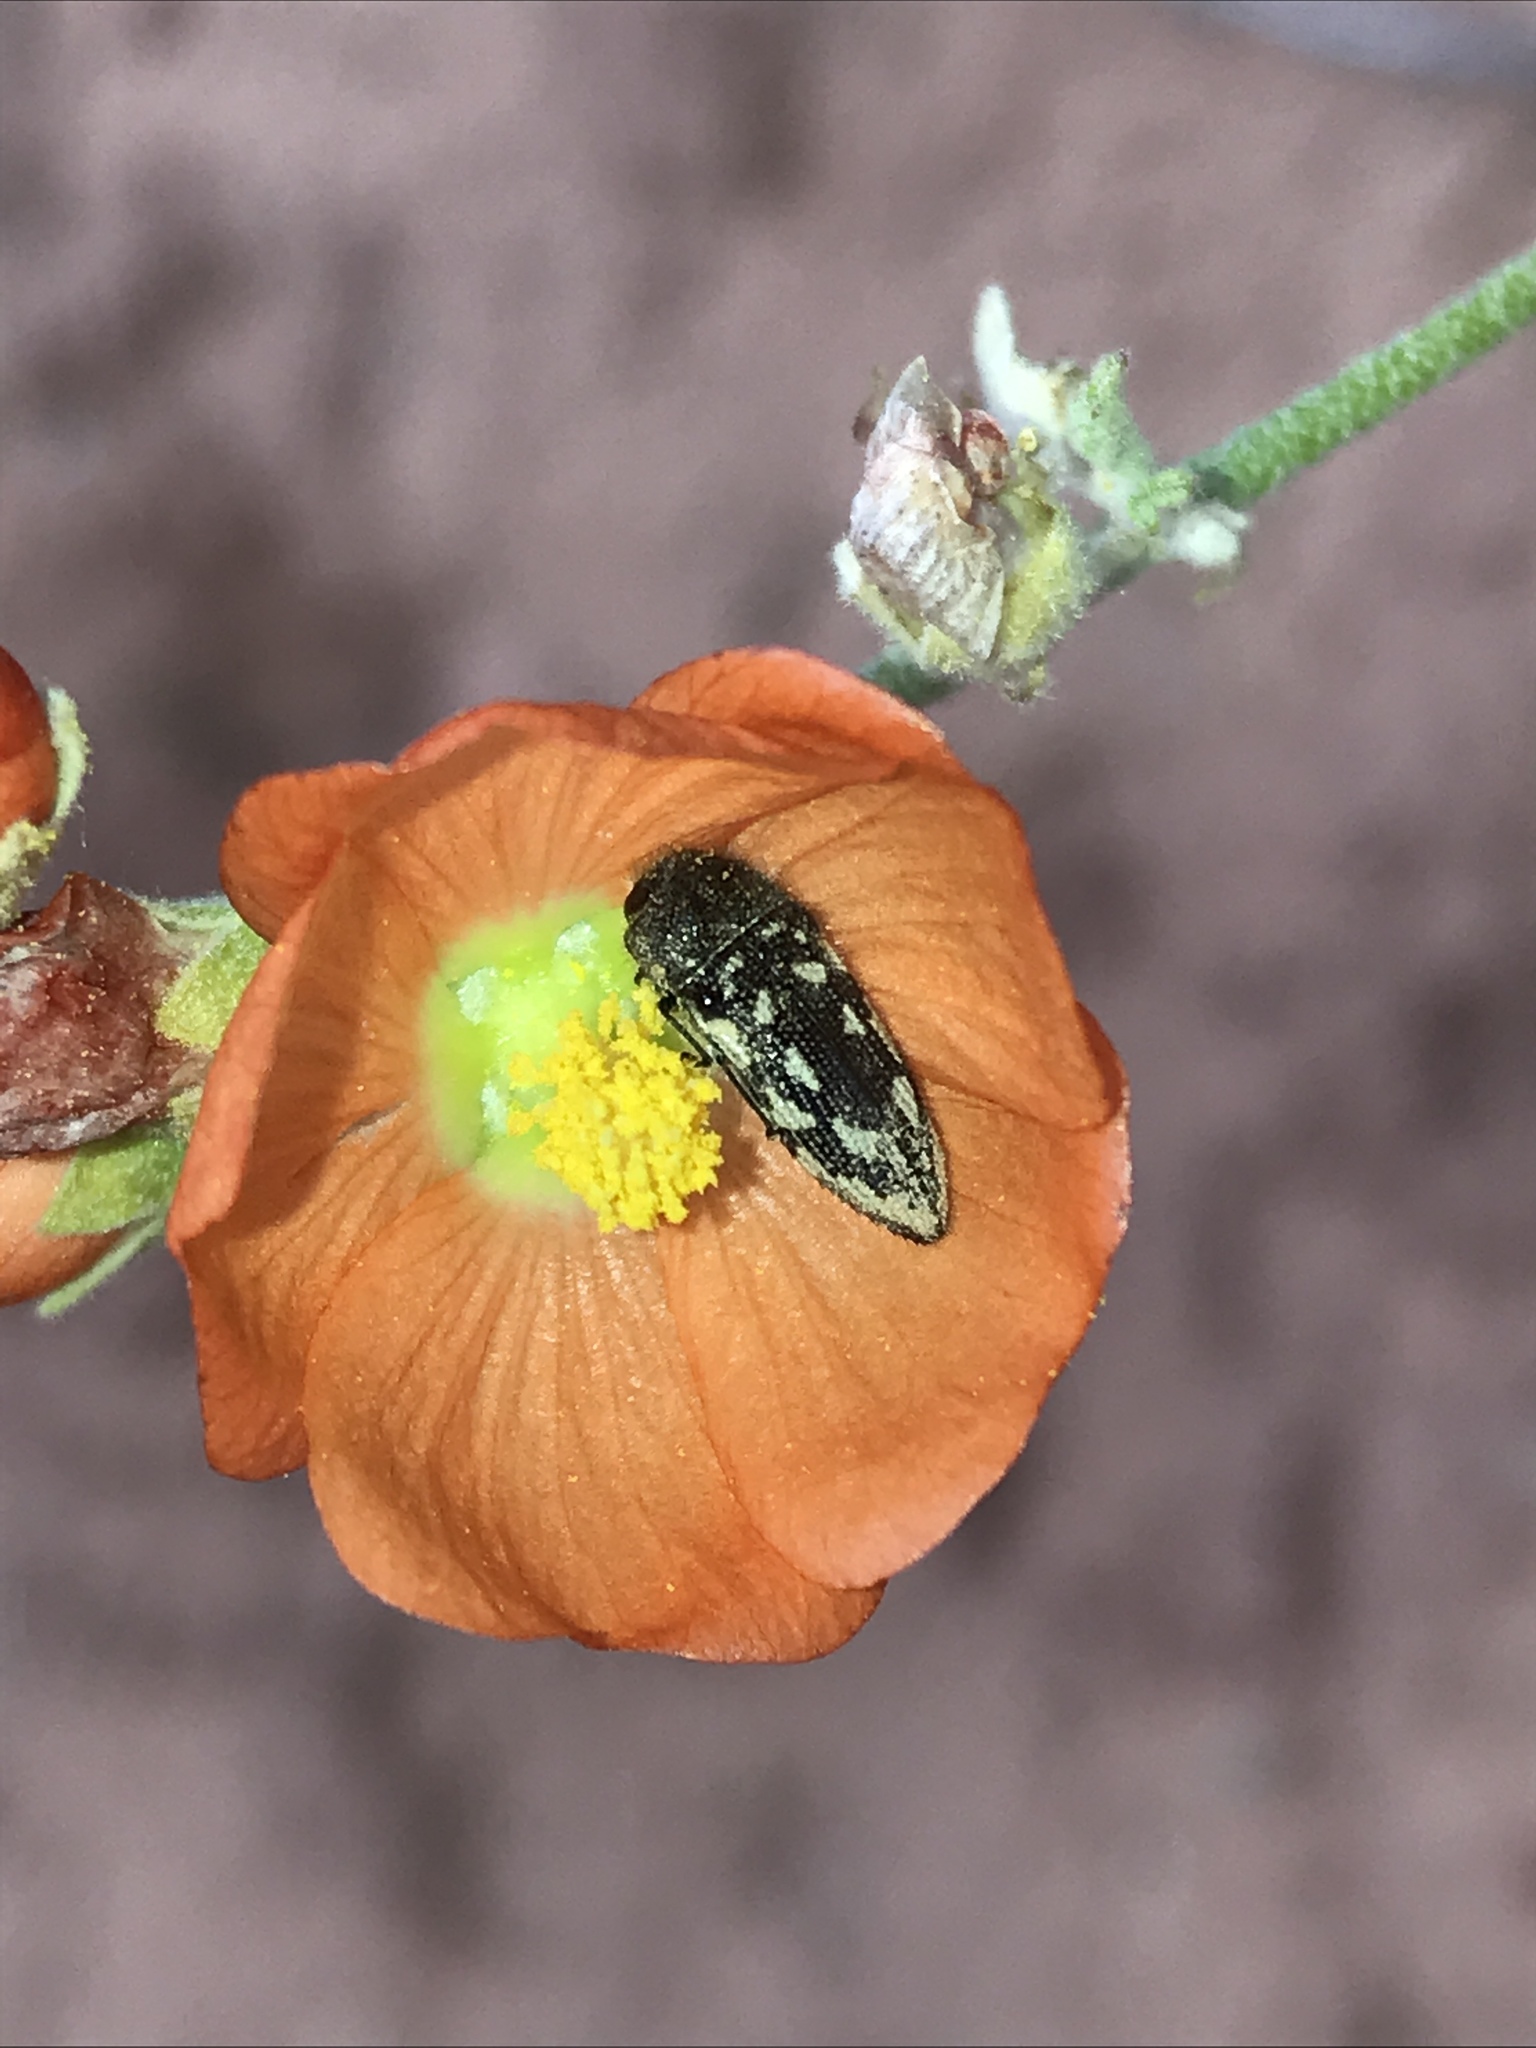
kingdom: Animalia
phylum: Arthropoda
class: Insecta
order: Coleoptera
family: Buprestidae
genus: Acmaeodera
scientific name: Acmaeodera bowditchi
